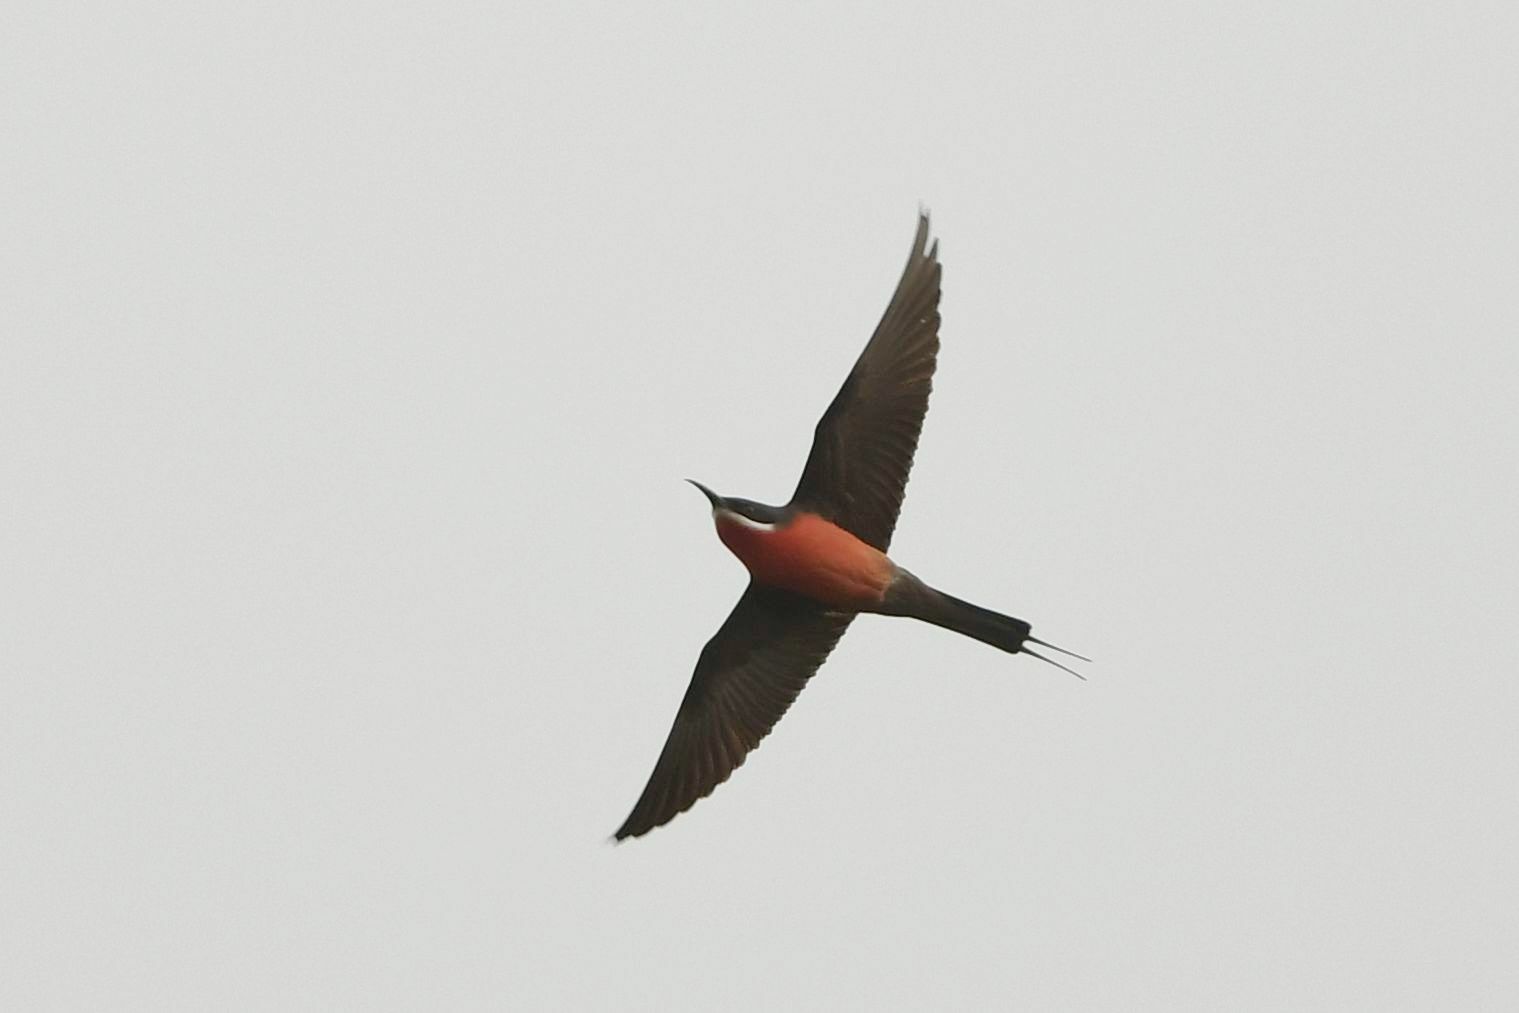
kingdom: Animalia
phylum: Chordata
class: Aves
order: Coraciiformes
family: Meropidae
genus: Merops
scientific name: Merops malimbicus
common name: Rosy bee-eater
